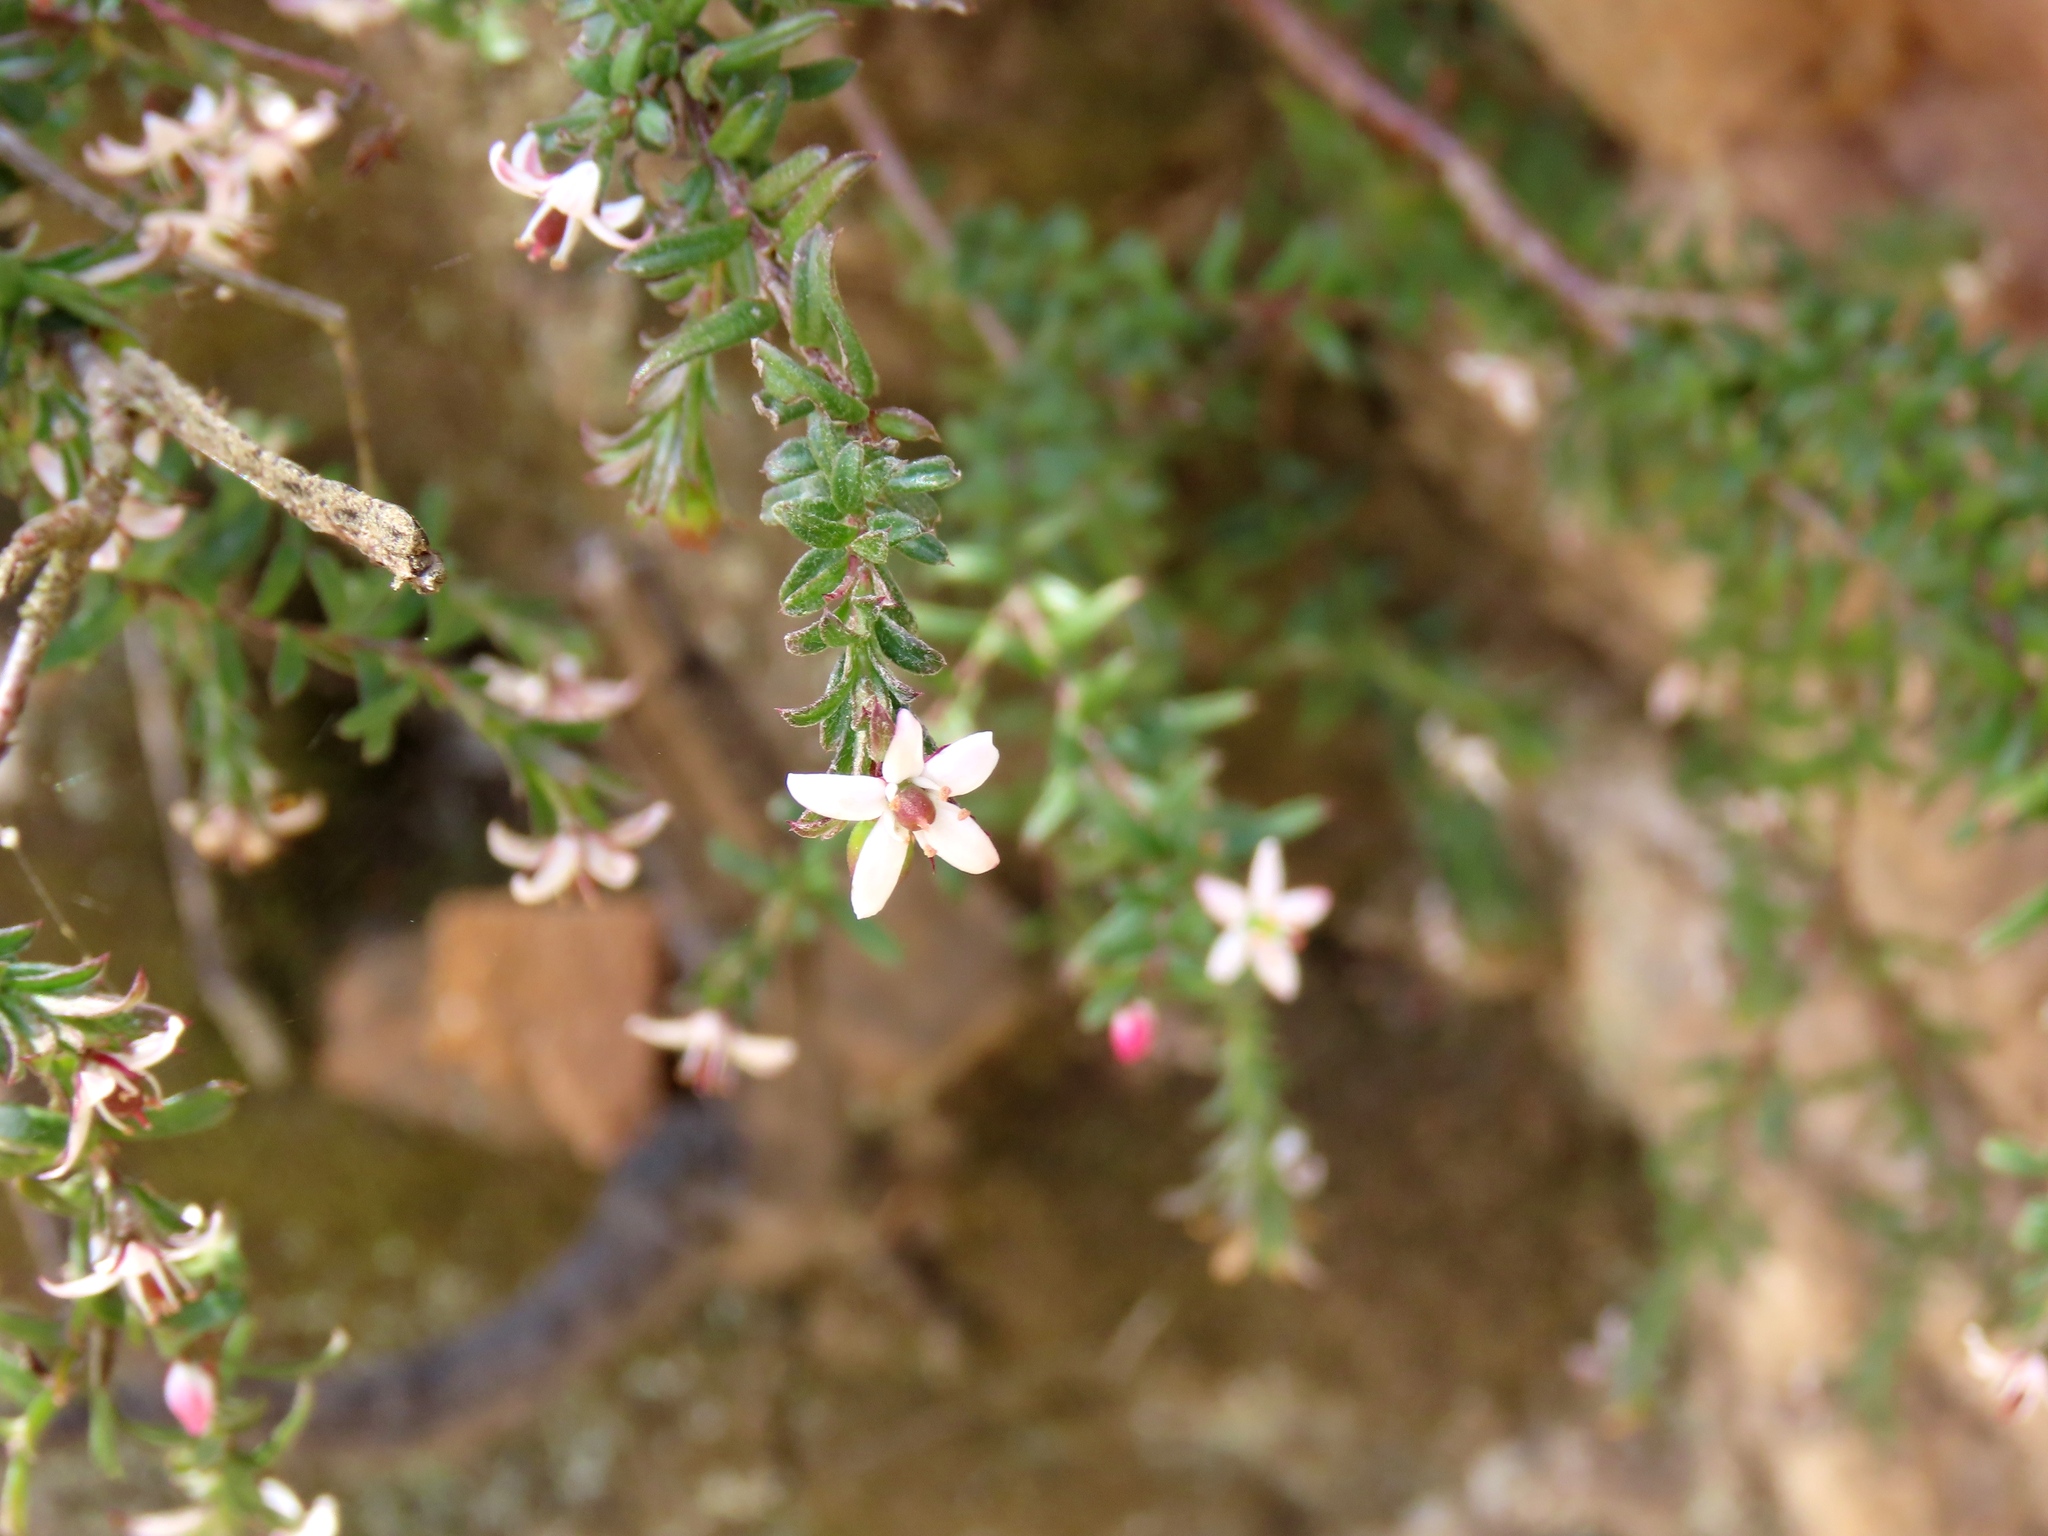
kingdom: Plantae
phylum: Tracheophyta
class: Magnoliopsida
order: Apiales
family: Pittosporaceae
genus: Rhytidosporum
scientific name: Rhytidosporum procumbens
